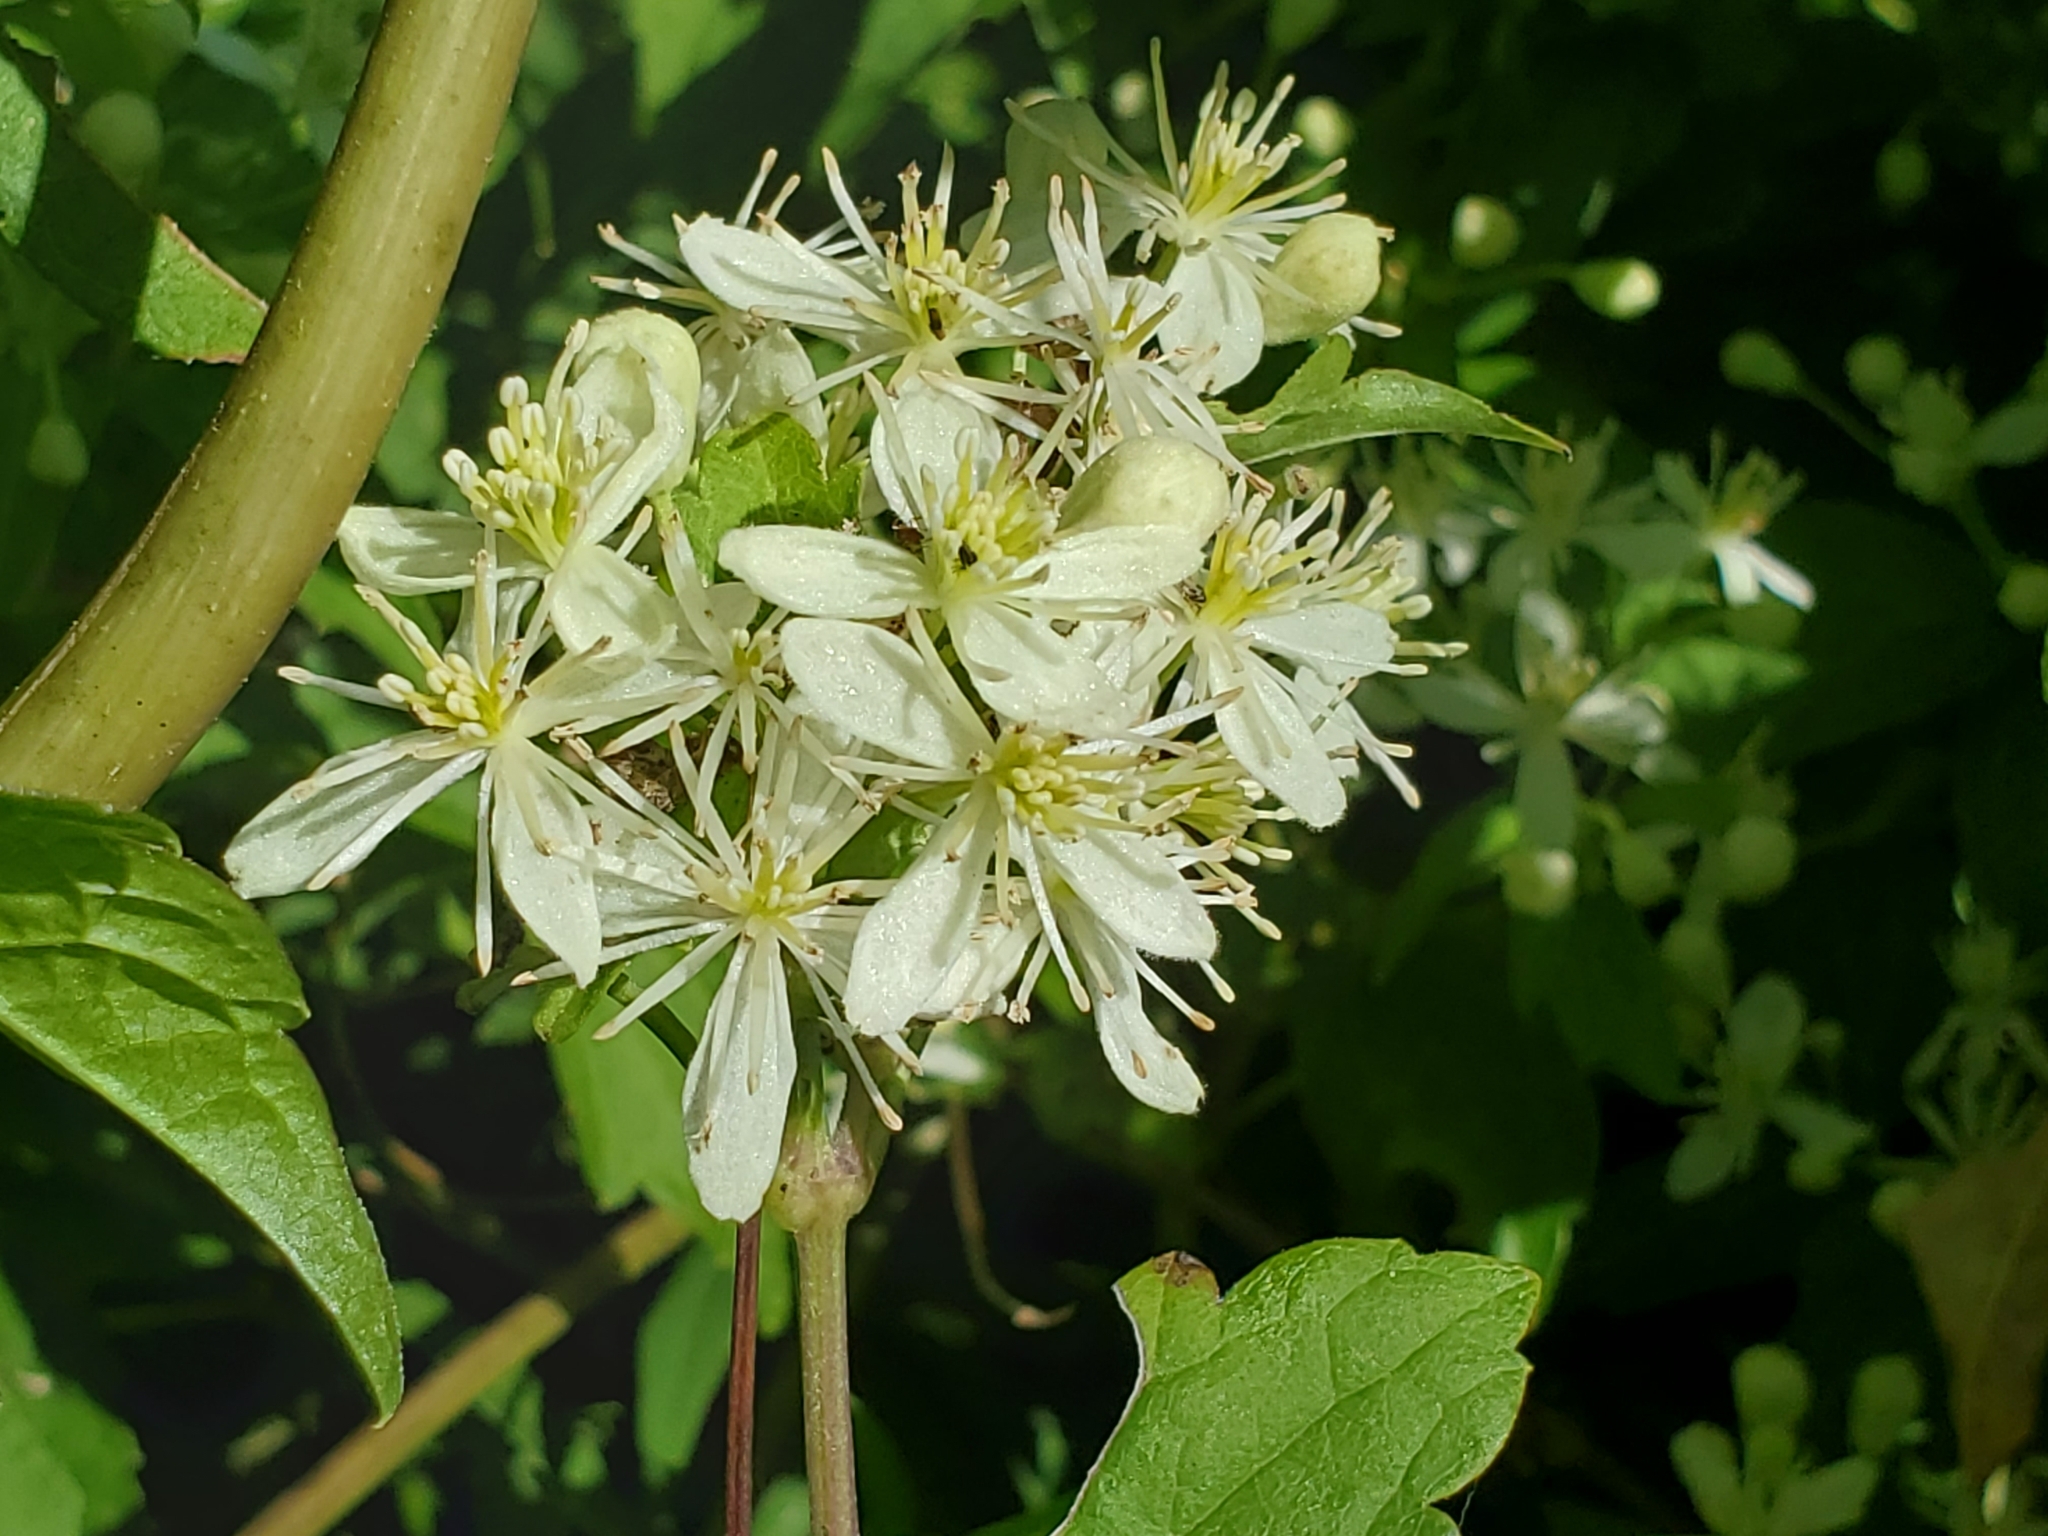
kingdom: Plantae
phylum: Tracheophyta
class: Magnoliopsida
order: Ranunculales
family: Ranunculaceae
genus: Clematis
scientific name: Clematis virginiana
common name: Virgin's-bower
